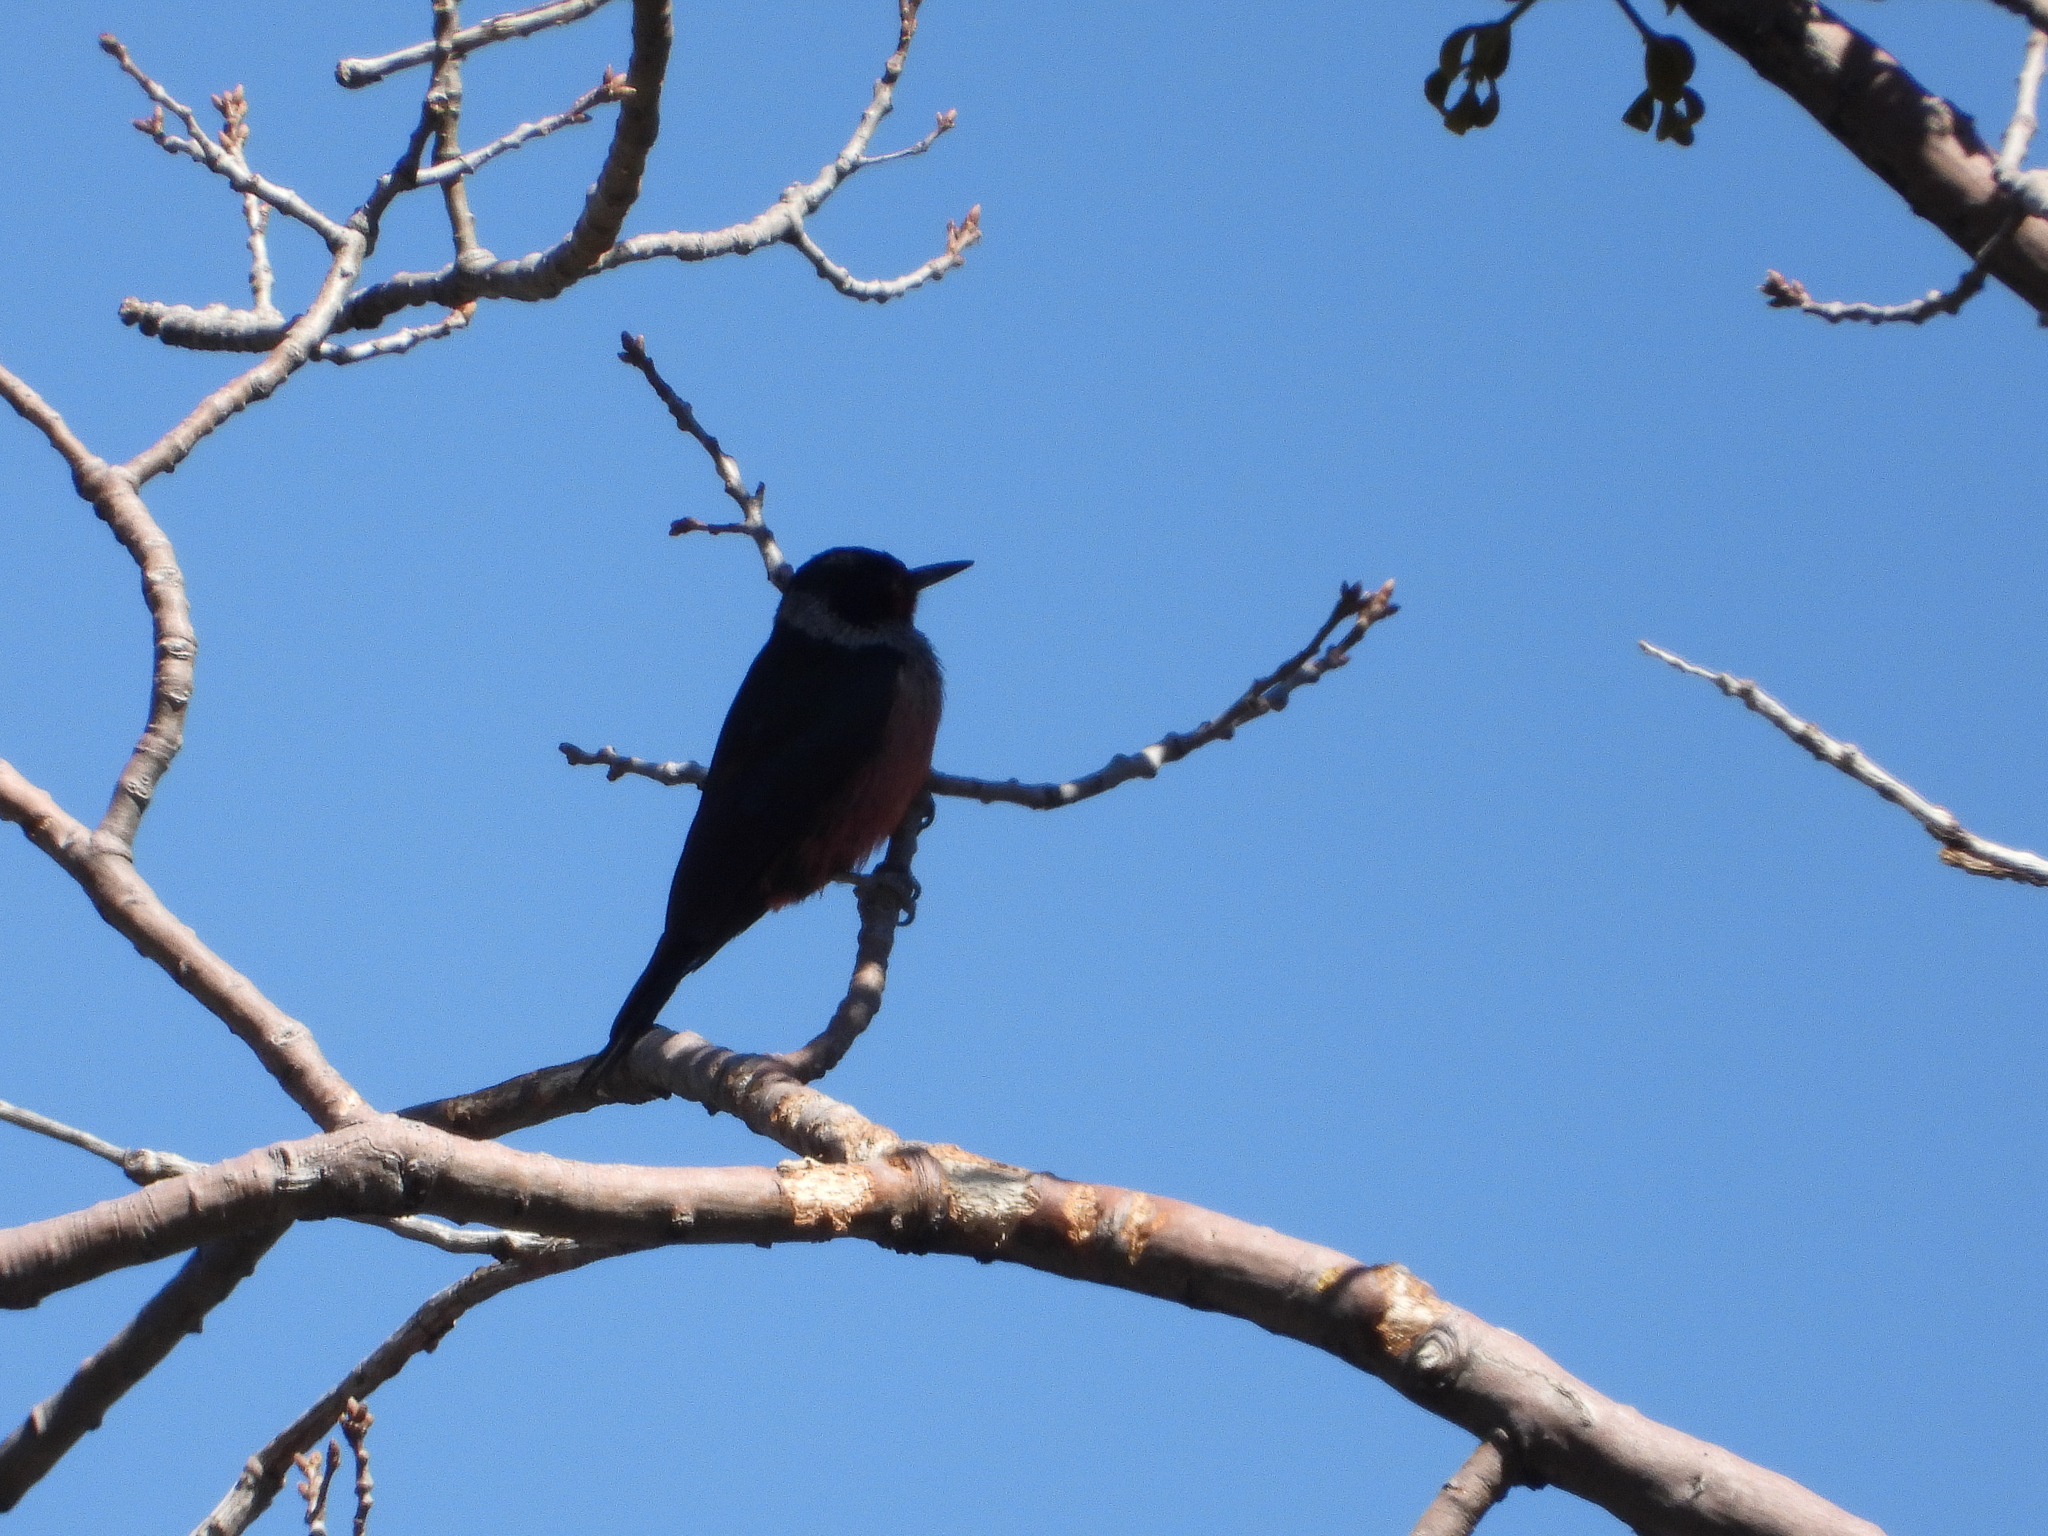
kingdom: Animalia
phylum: Chordata
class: Aves
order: Piciformes
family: Picidae
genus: Melanerpes
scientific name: Melanerpes lewis
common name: Lewis's woodpecker
